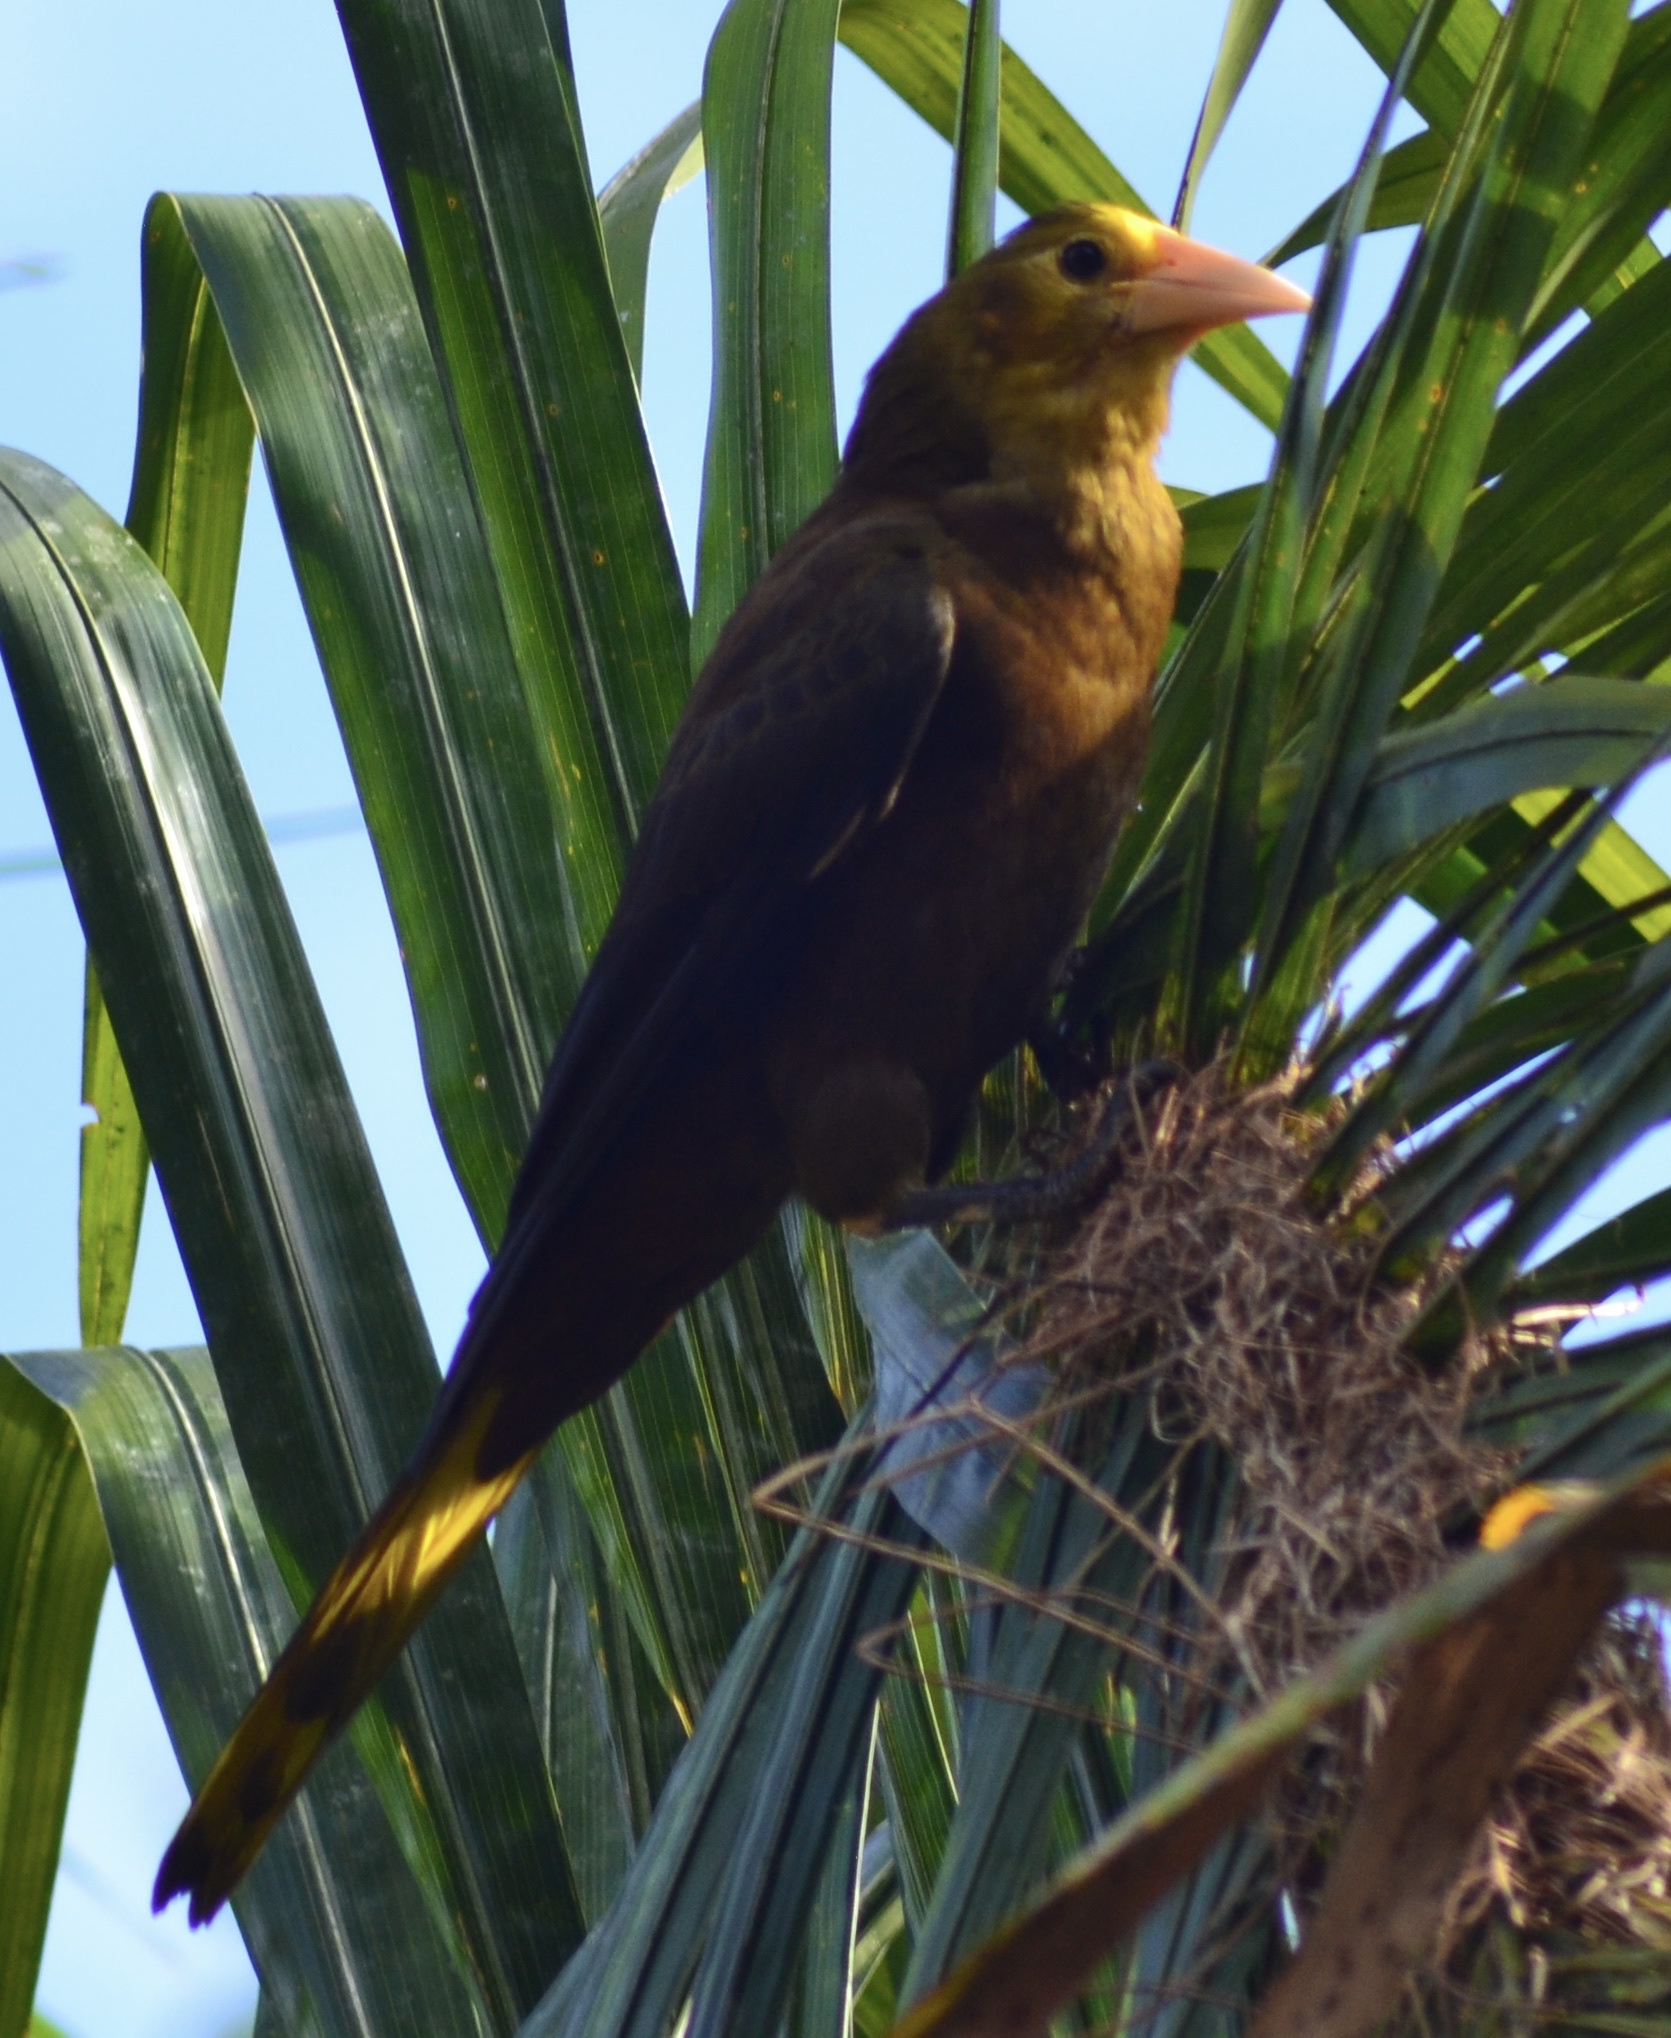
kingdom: Animalia
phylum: Chordata
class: Aves
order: Passeriformes
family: Icteridae
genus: Psarocolius
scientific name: Psarocolius angustifrons
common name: Russet-backed oropendola
